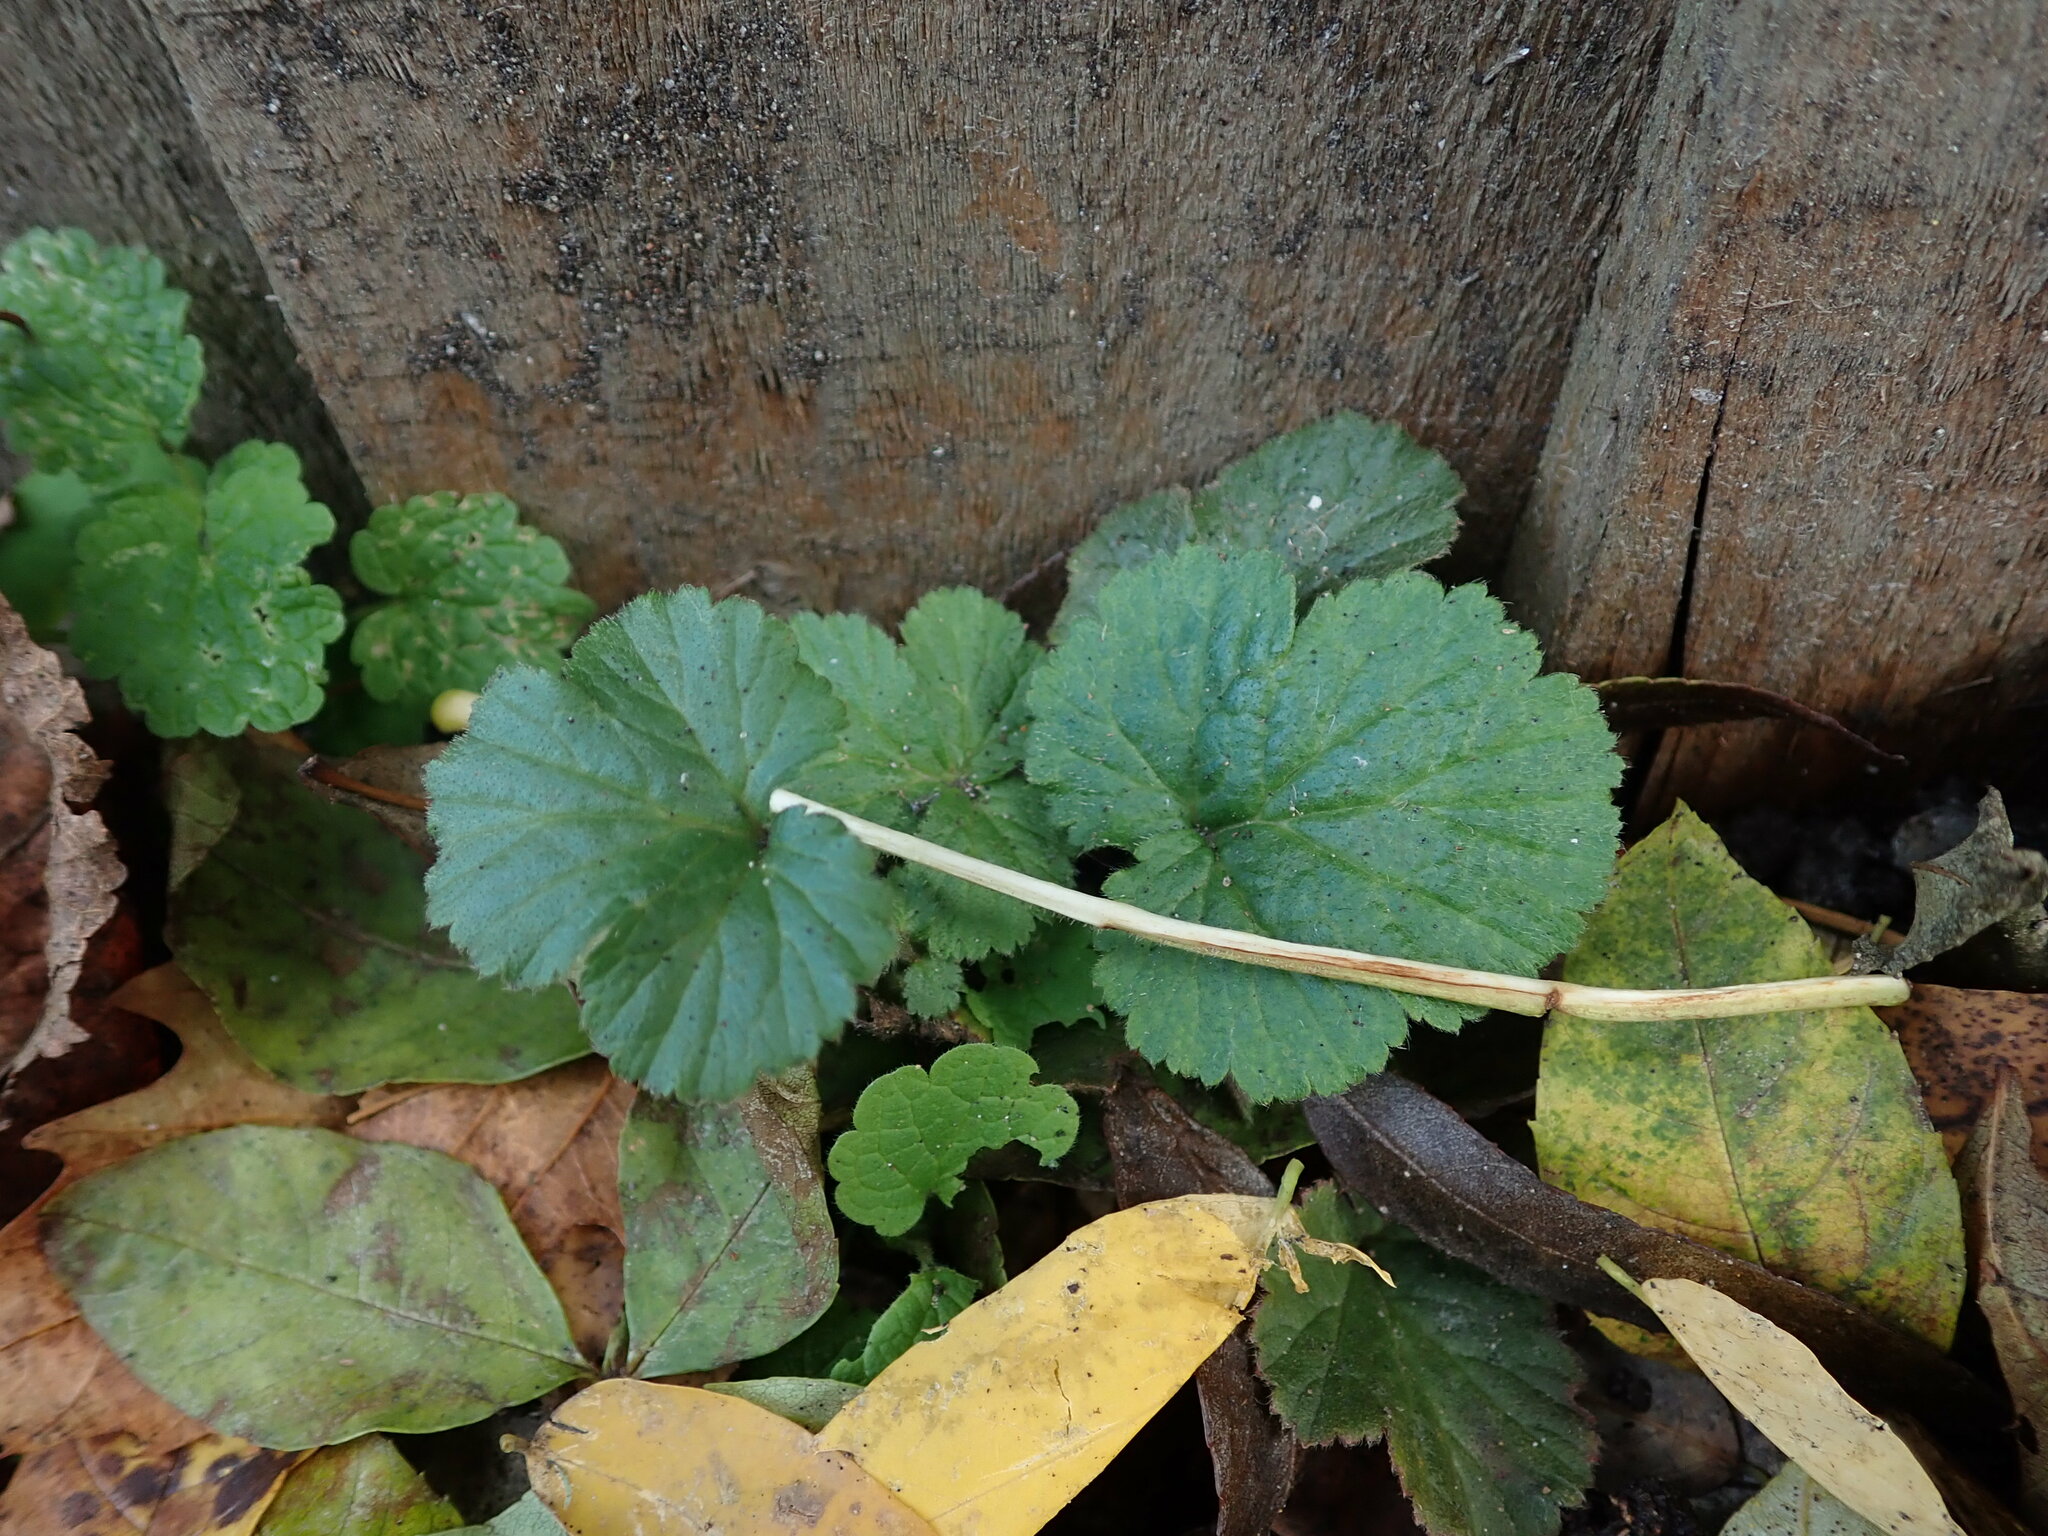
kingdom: Plantae
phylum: Tracheophyta
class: Magnoliopsida
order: Rosales
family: Rosaceae
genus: Geum
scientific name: Geum urbanum
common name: Wood avens
